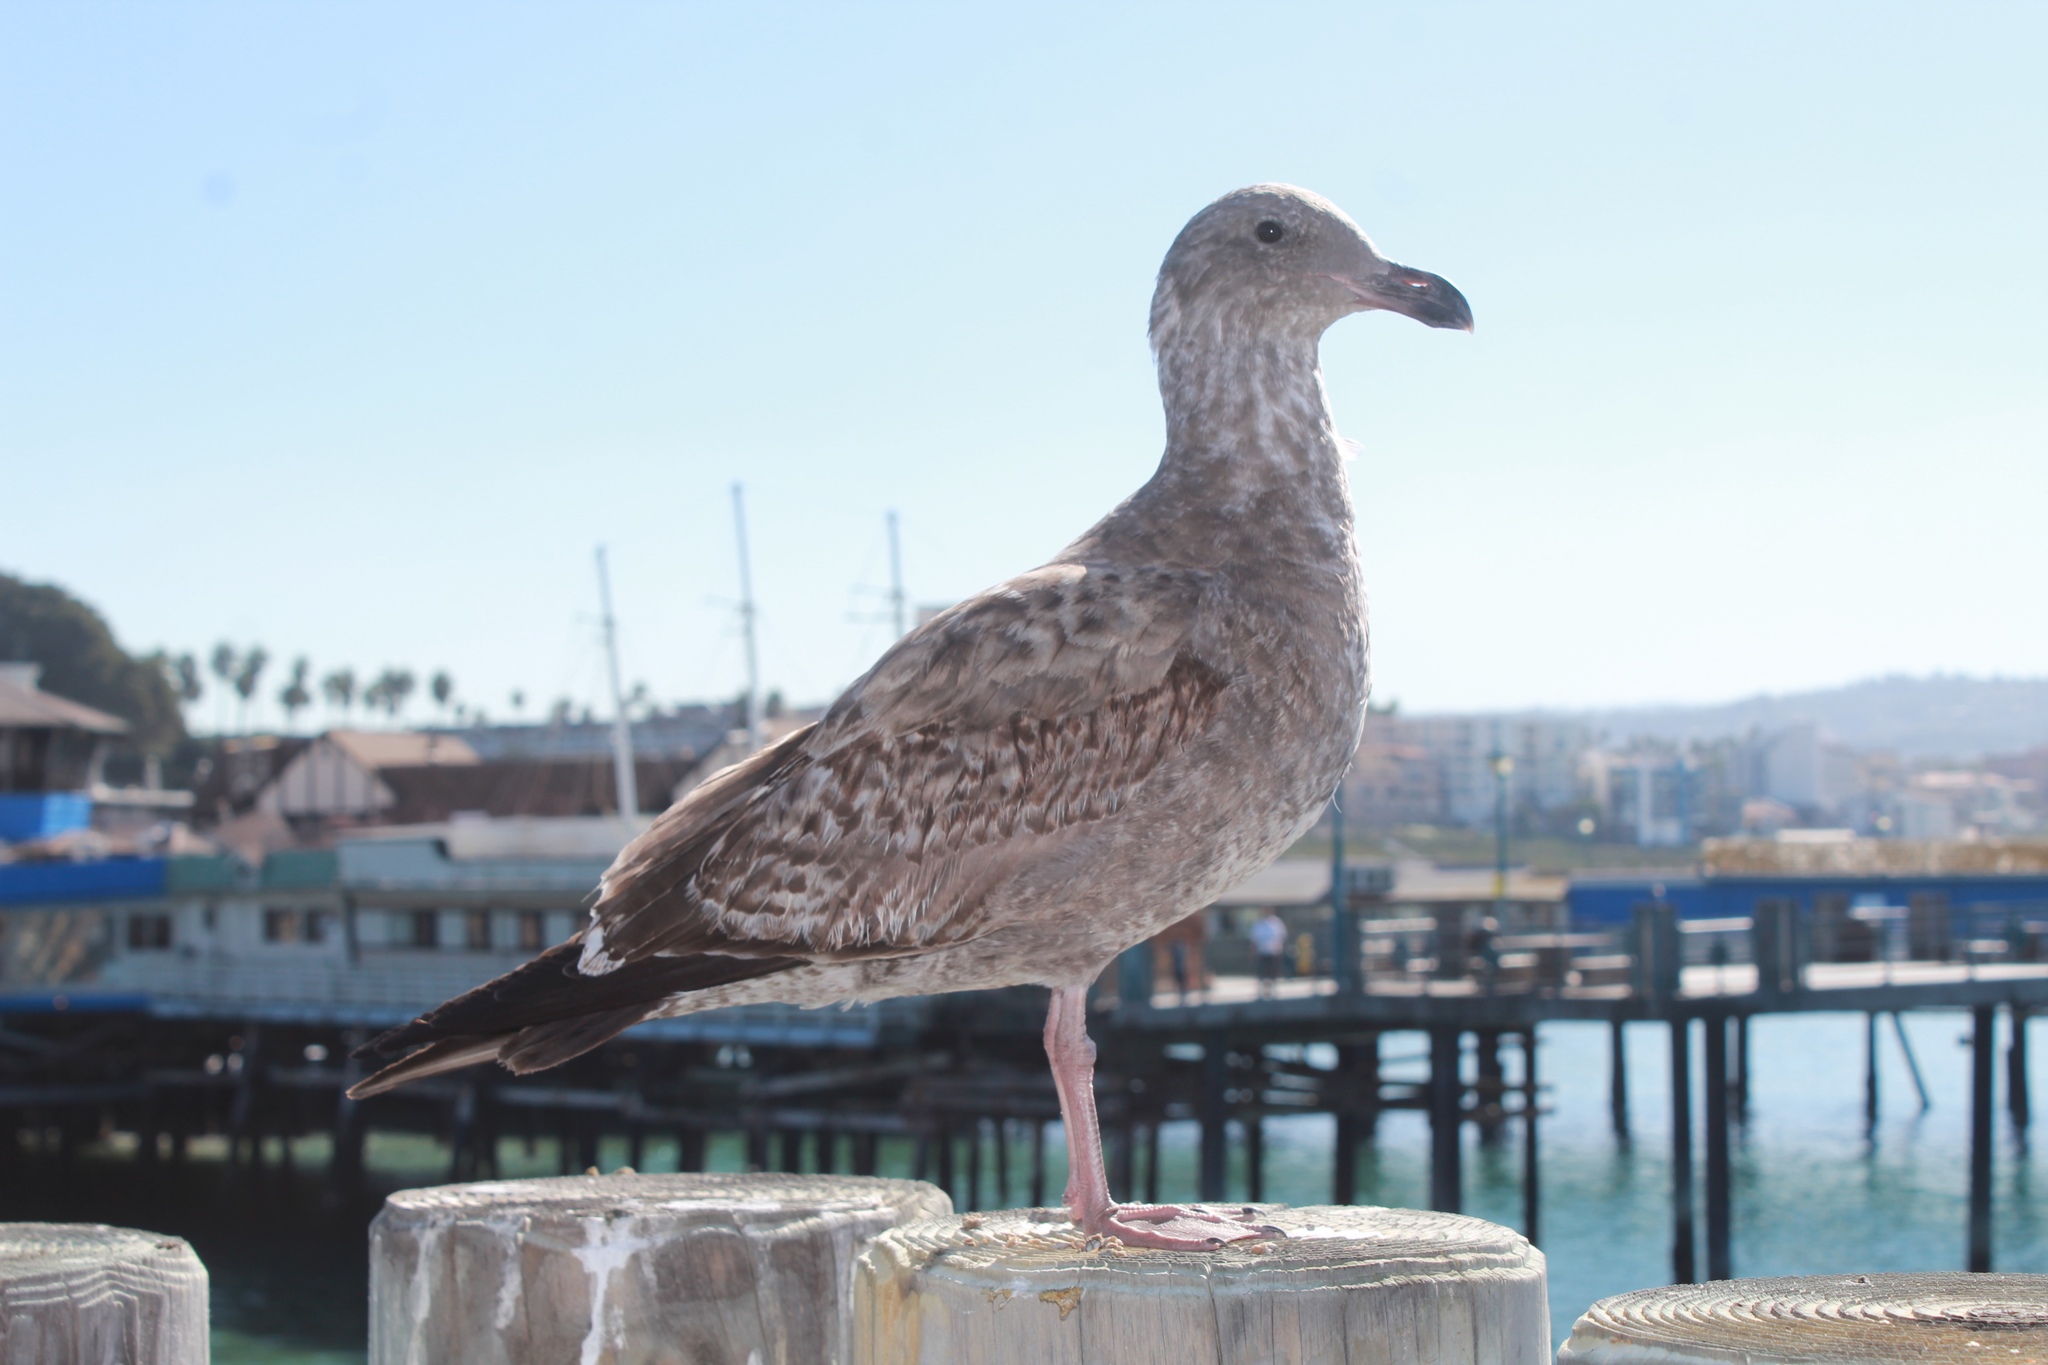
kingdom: Animalia
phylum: Chordata
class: Aves
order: Charadriiformes
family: Laridae
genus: Larus
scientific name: Larus occidentalis
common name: Western gull
